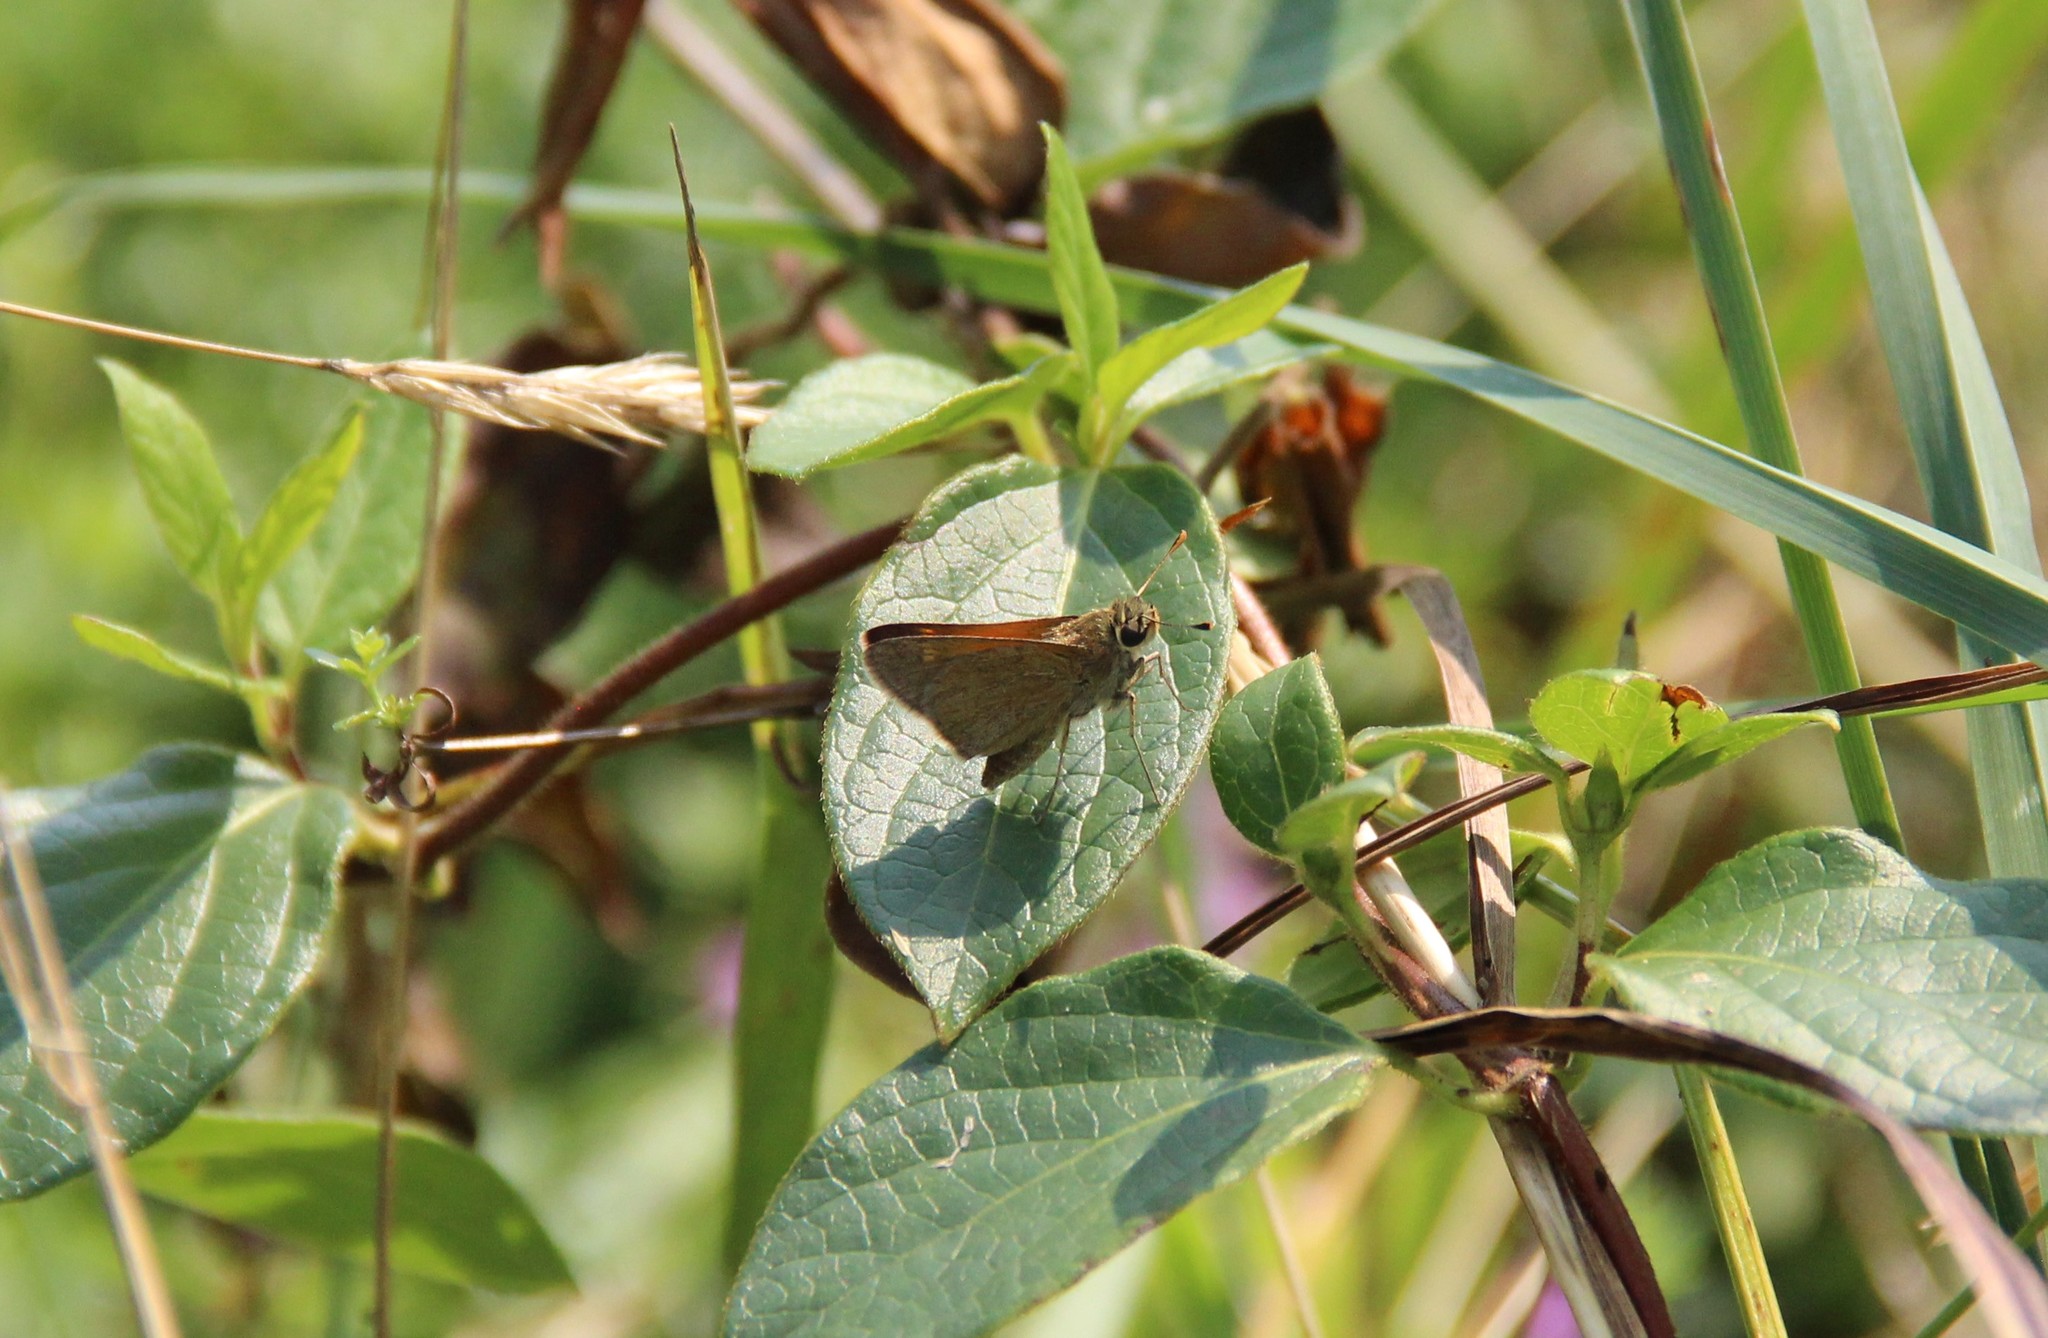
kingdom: Animalia
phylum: Arthropoda
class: Insecta
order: Lepidoptera
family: Hesperiidae
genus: Polites
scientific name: Polites themistocles
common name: Tawny-edged skipper
